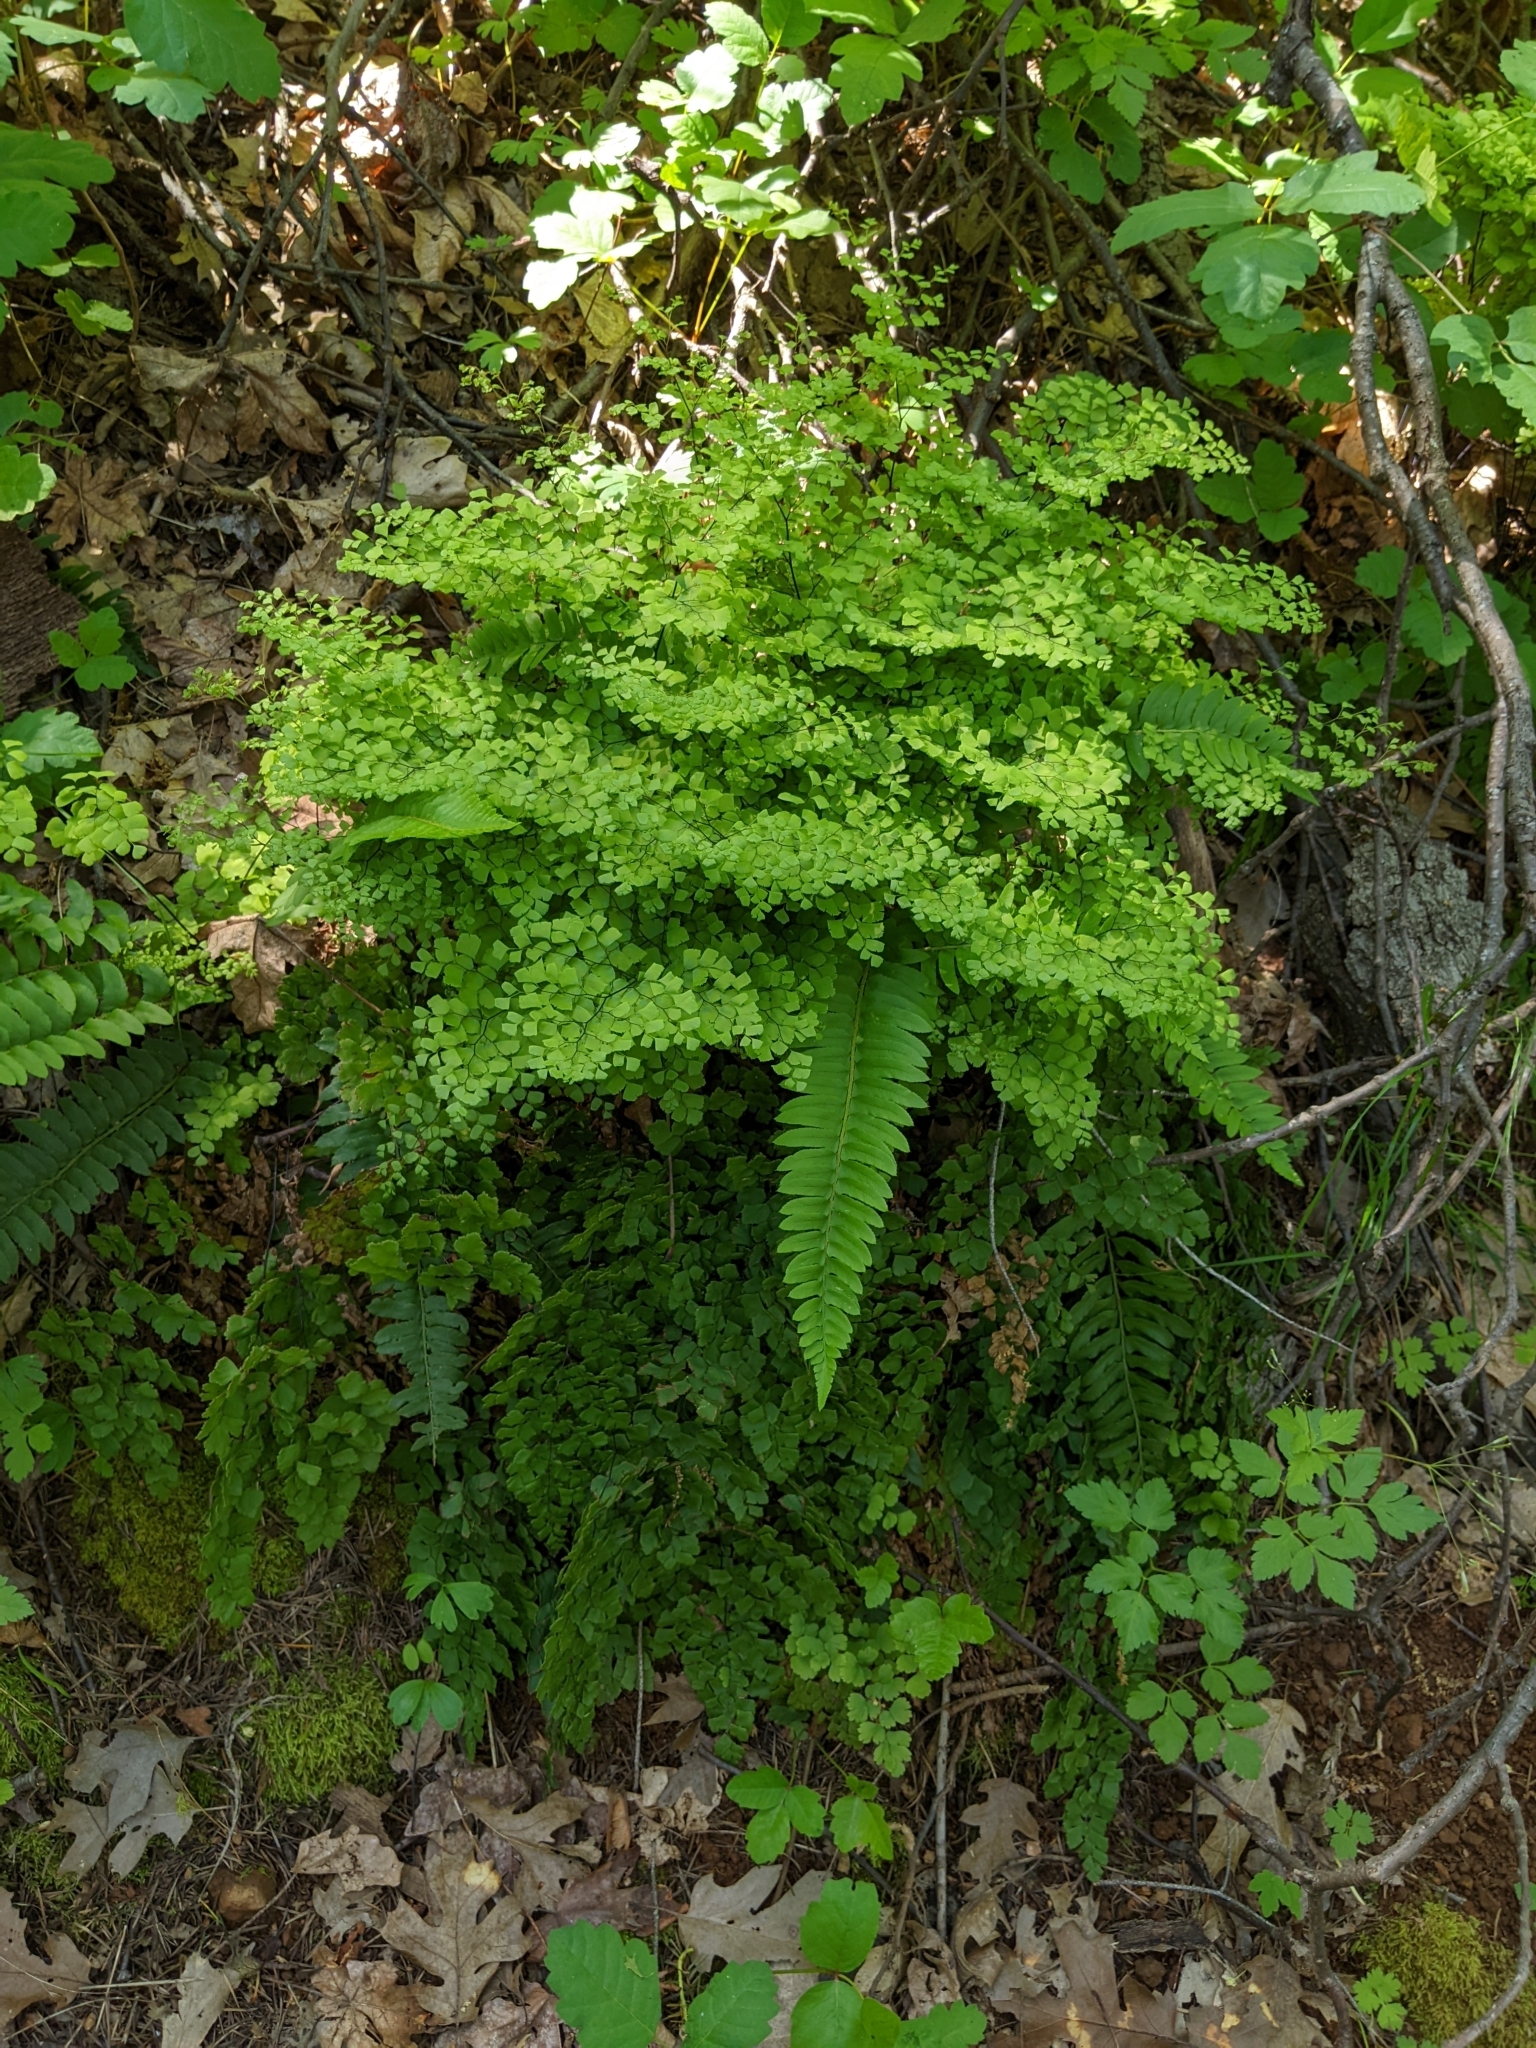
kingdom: Plantae
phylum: Tracheophyta
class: Polypodiopsida
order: Polypodiales
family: Pteridaceae
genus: Adiantum
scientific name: Adiantum shastense
